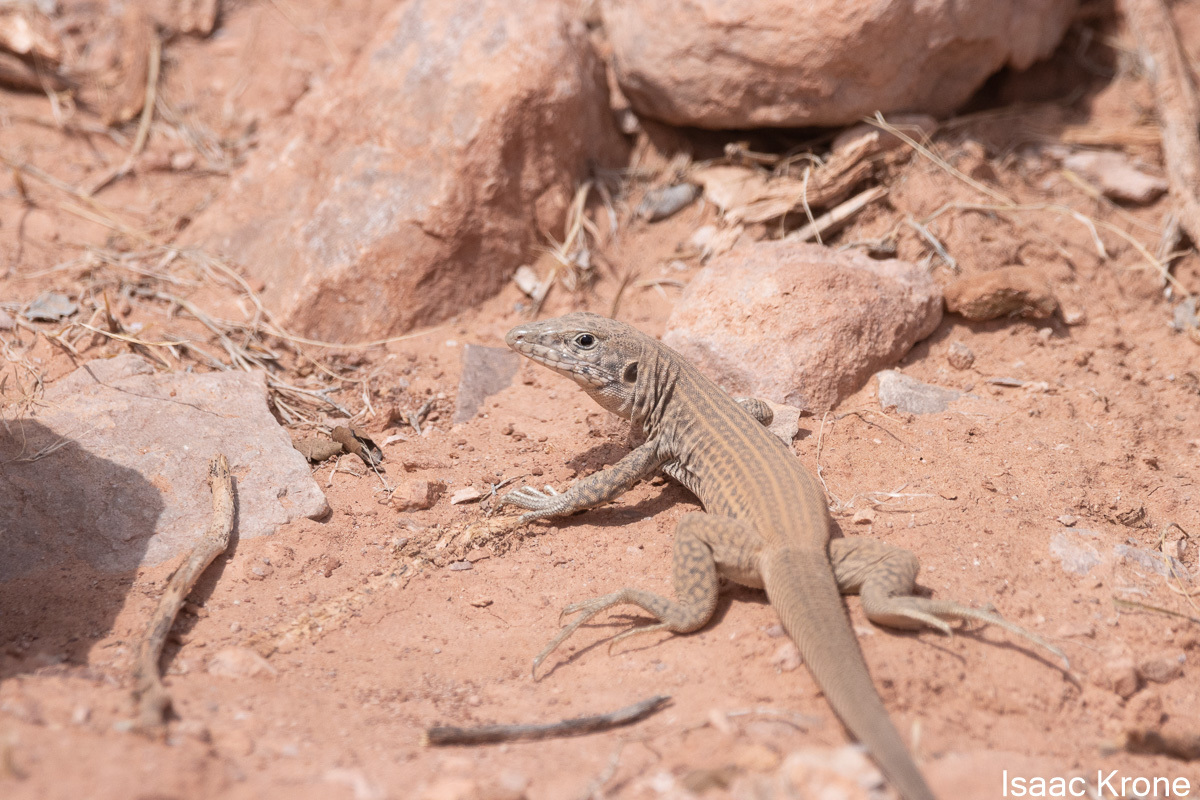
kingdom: Animalia
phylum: Chordata
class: Squamata
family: Teiidae
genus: Aspidoscelis
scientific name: Aspidoscelis tigris
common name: Tiger whiptail
